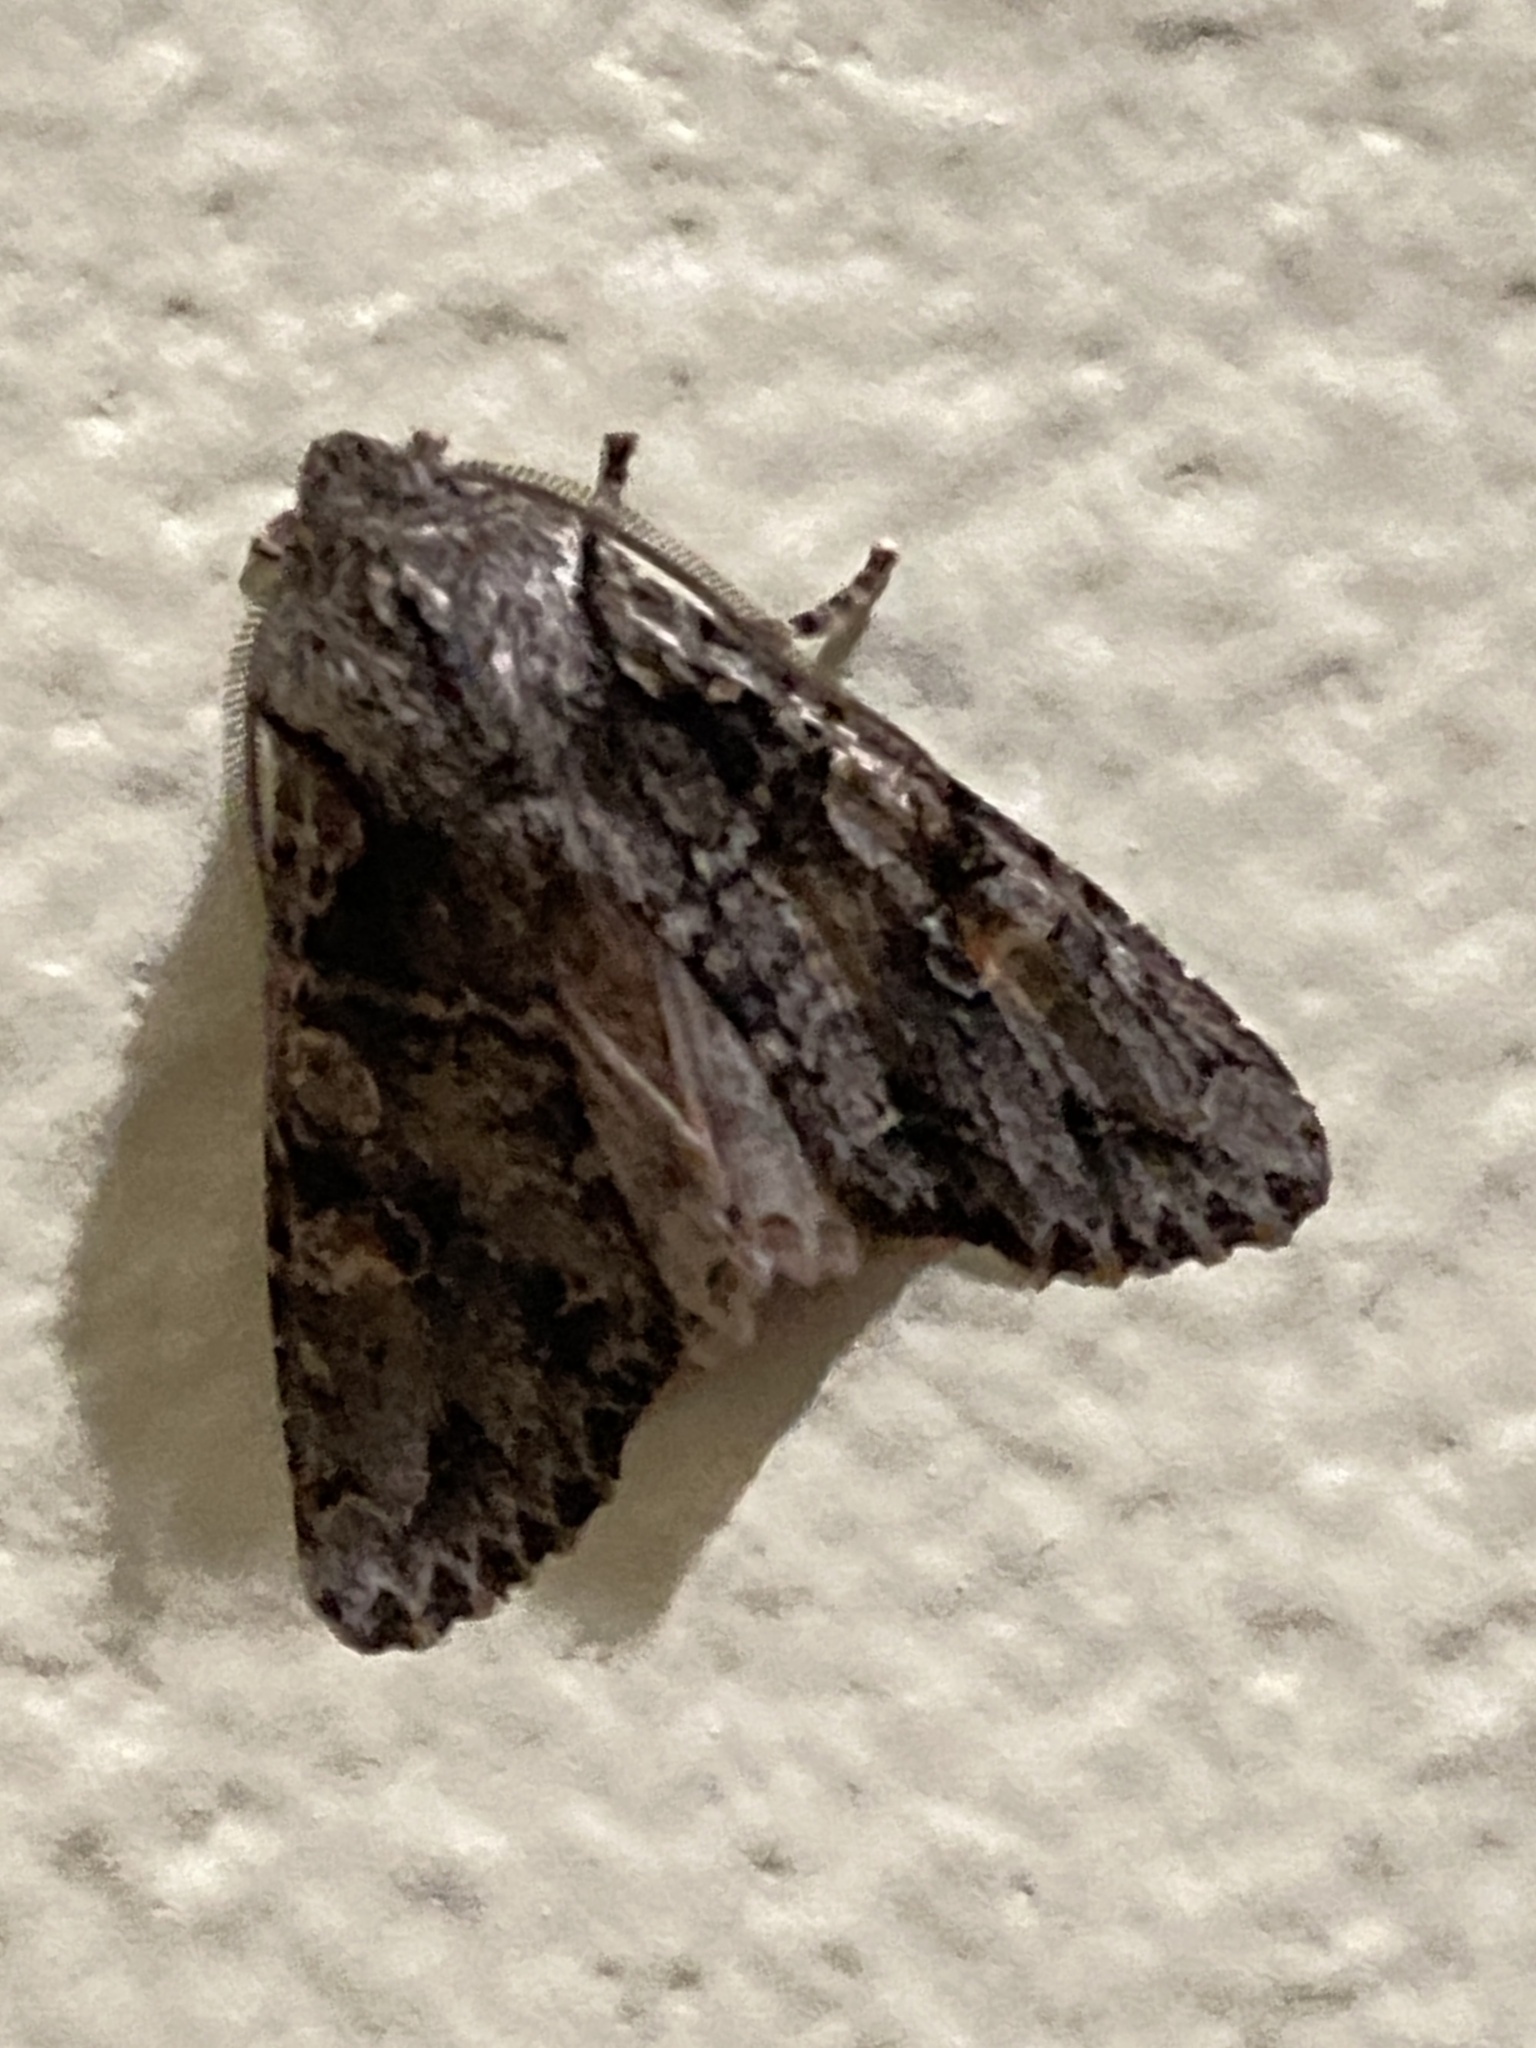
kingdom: Animalia
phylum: Arthropoda
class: Insecta
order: Lepidoptera
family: Noctuidae
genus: Egira
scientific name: Egira hiemalis
